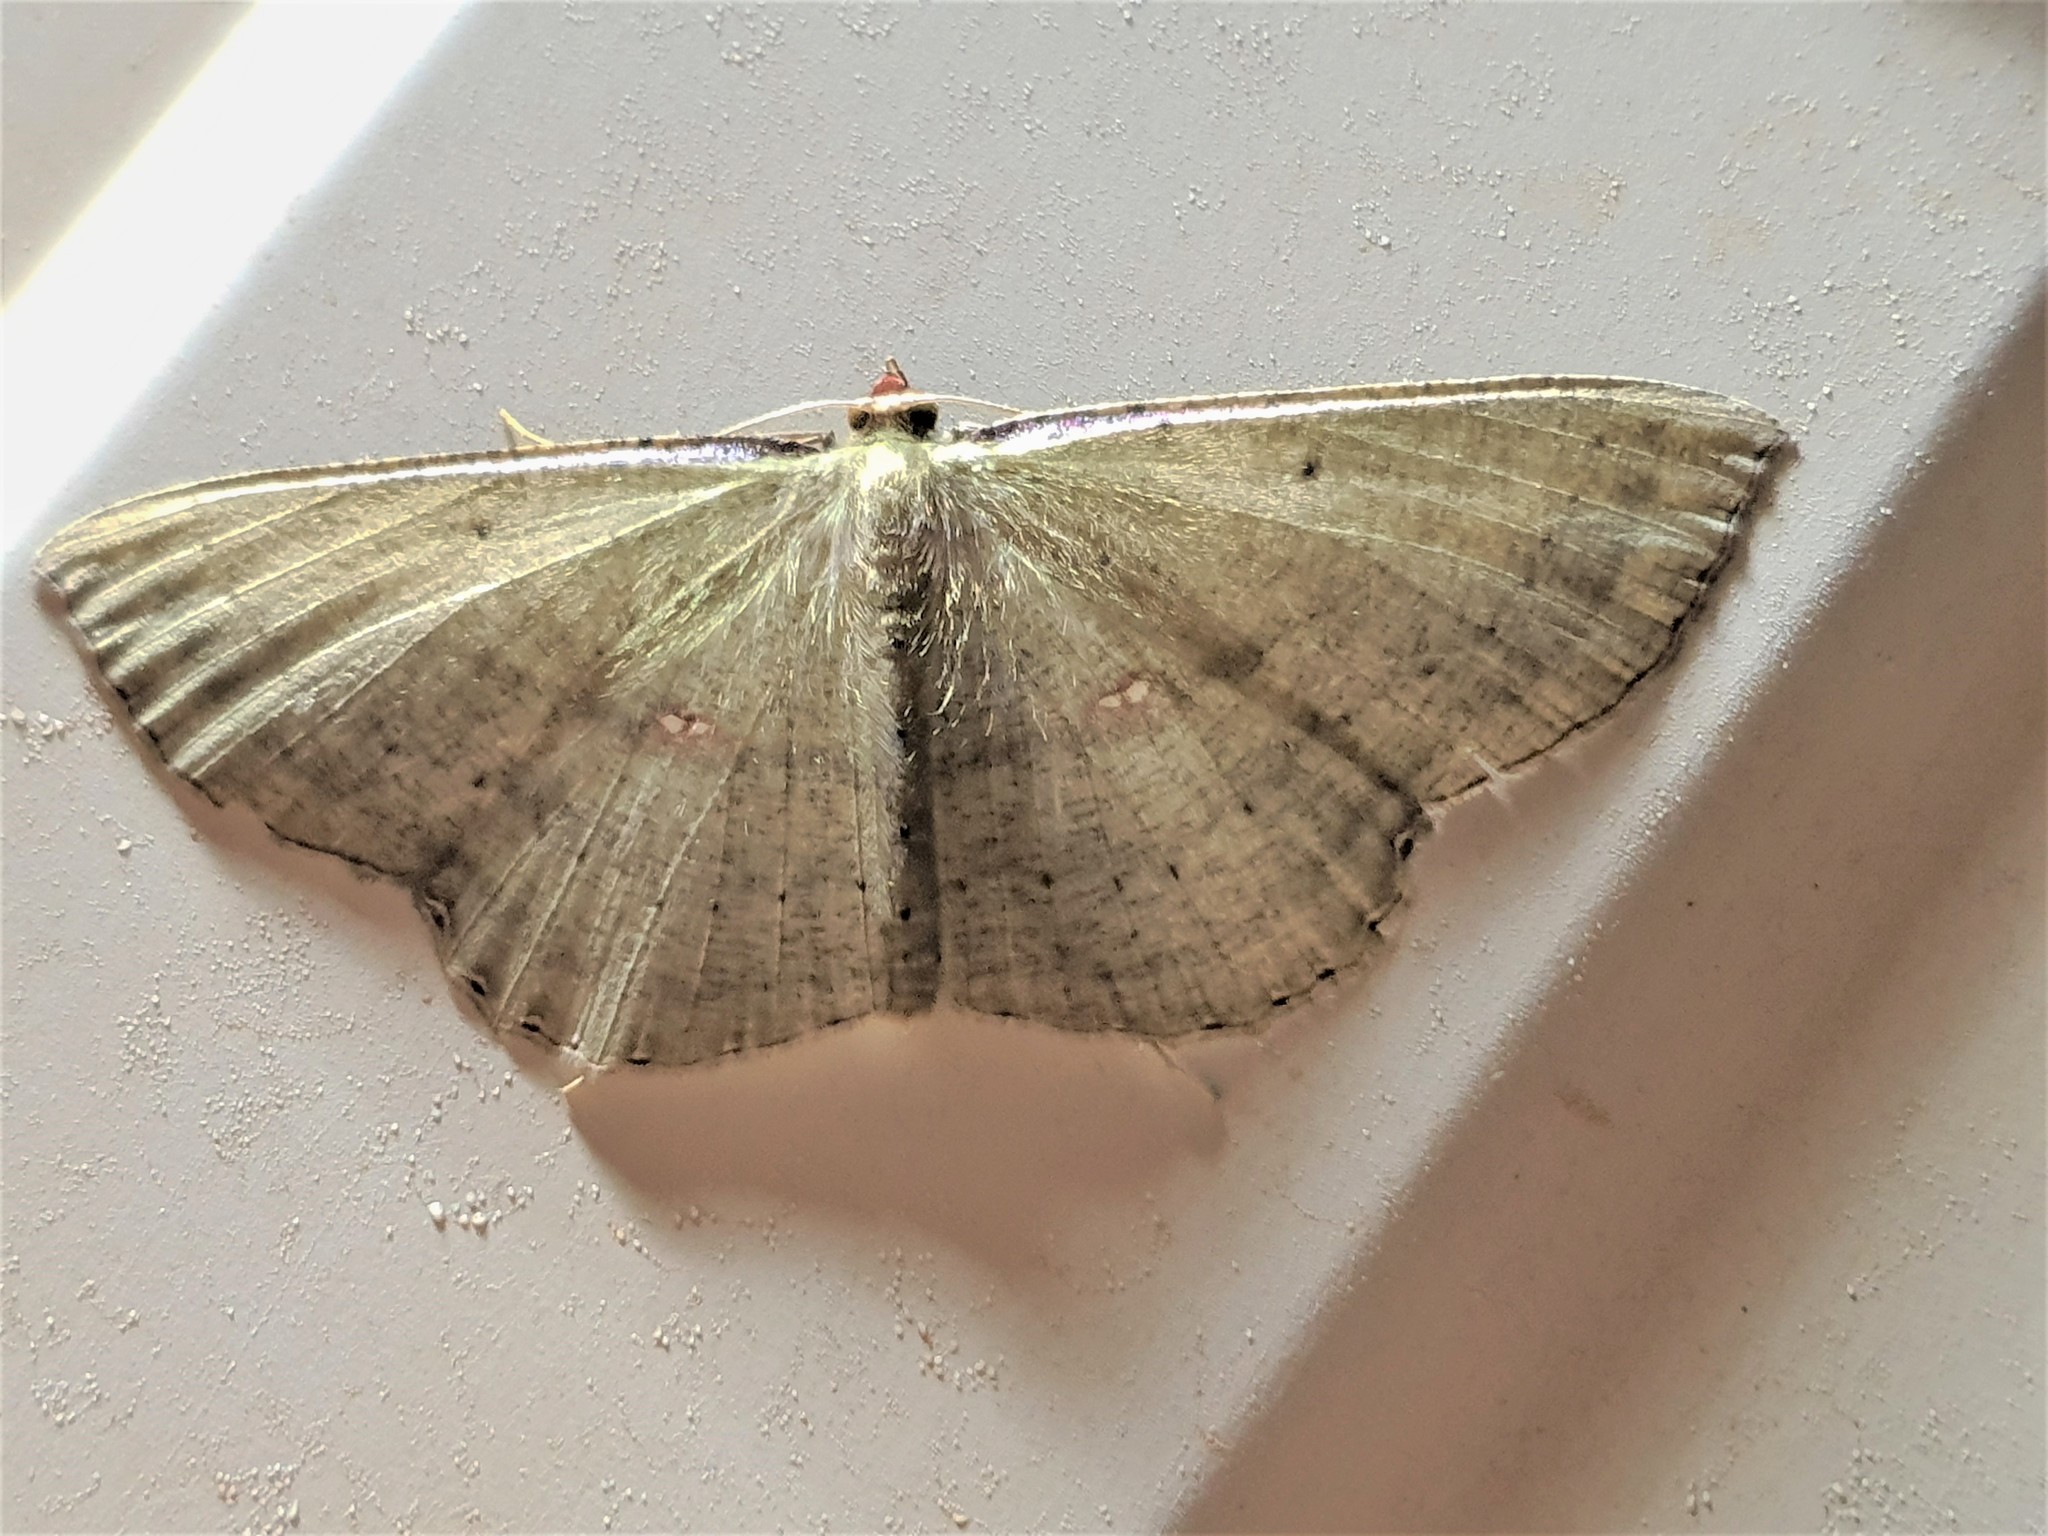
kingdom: Animalia
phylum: Arthropoda
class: Insecta
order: Lepidoptera
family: Geometridae
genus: Ametris
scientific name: Ametris nitocris
